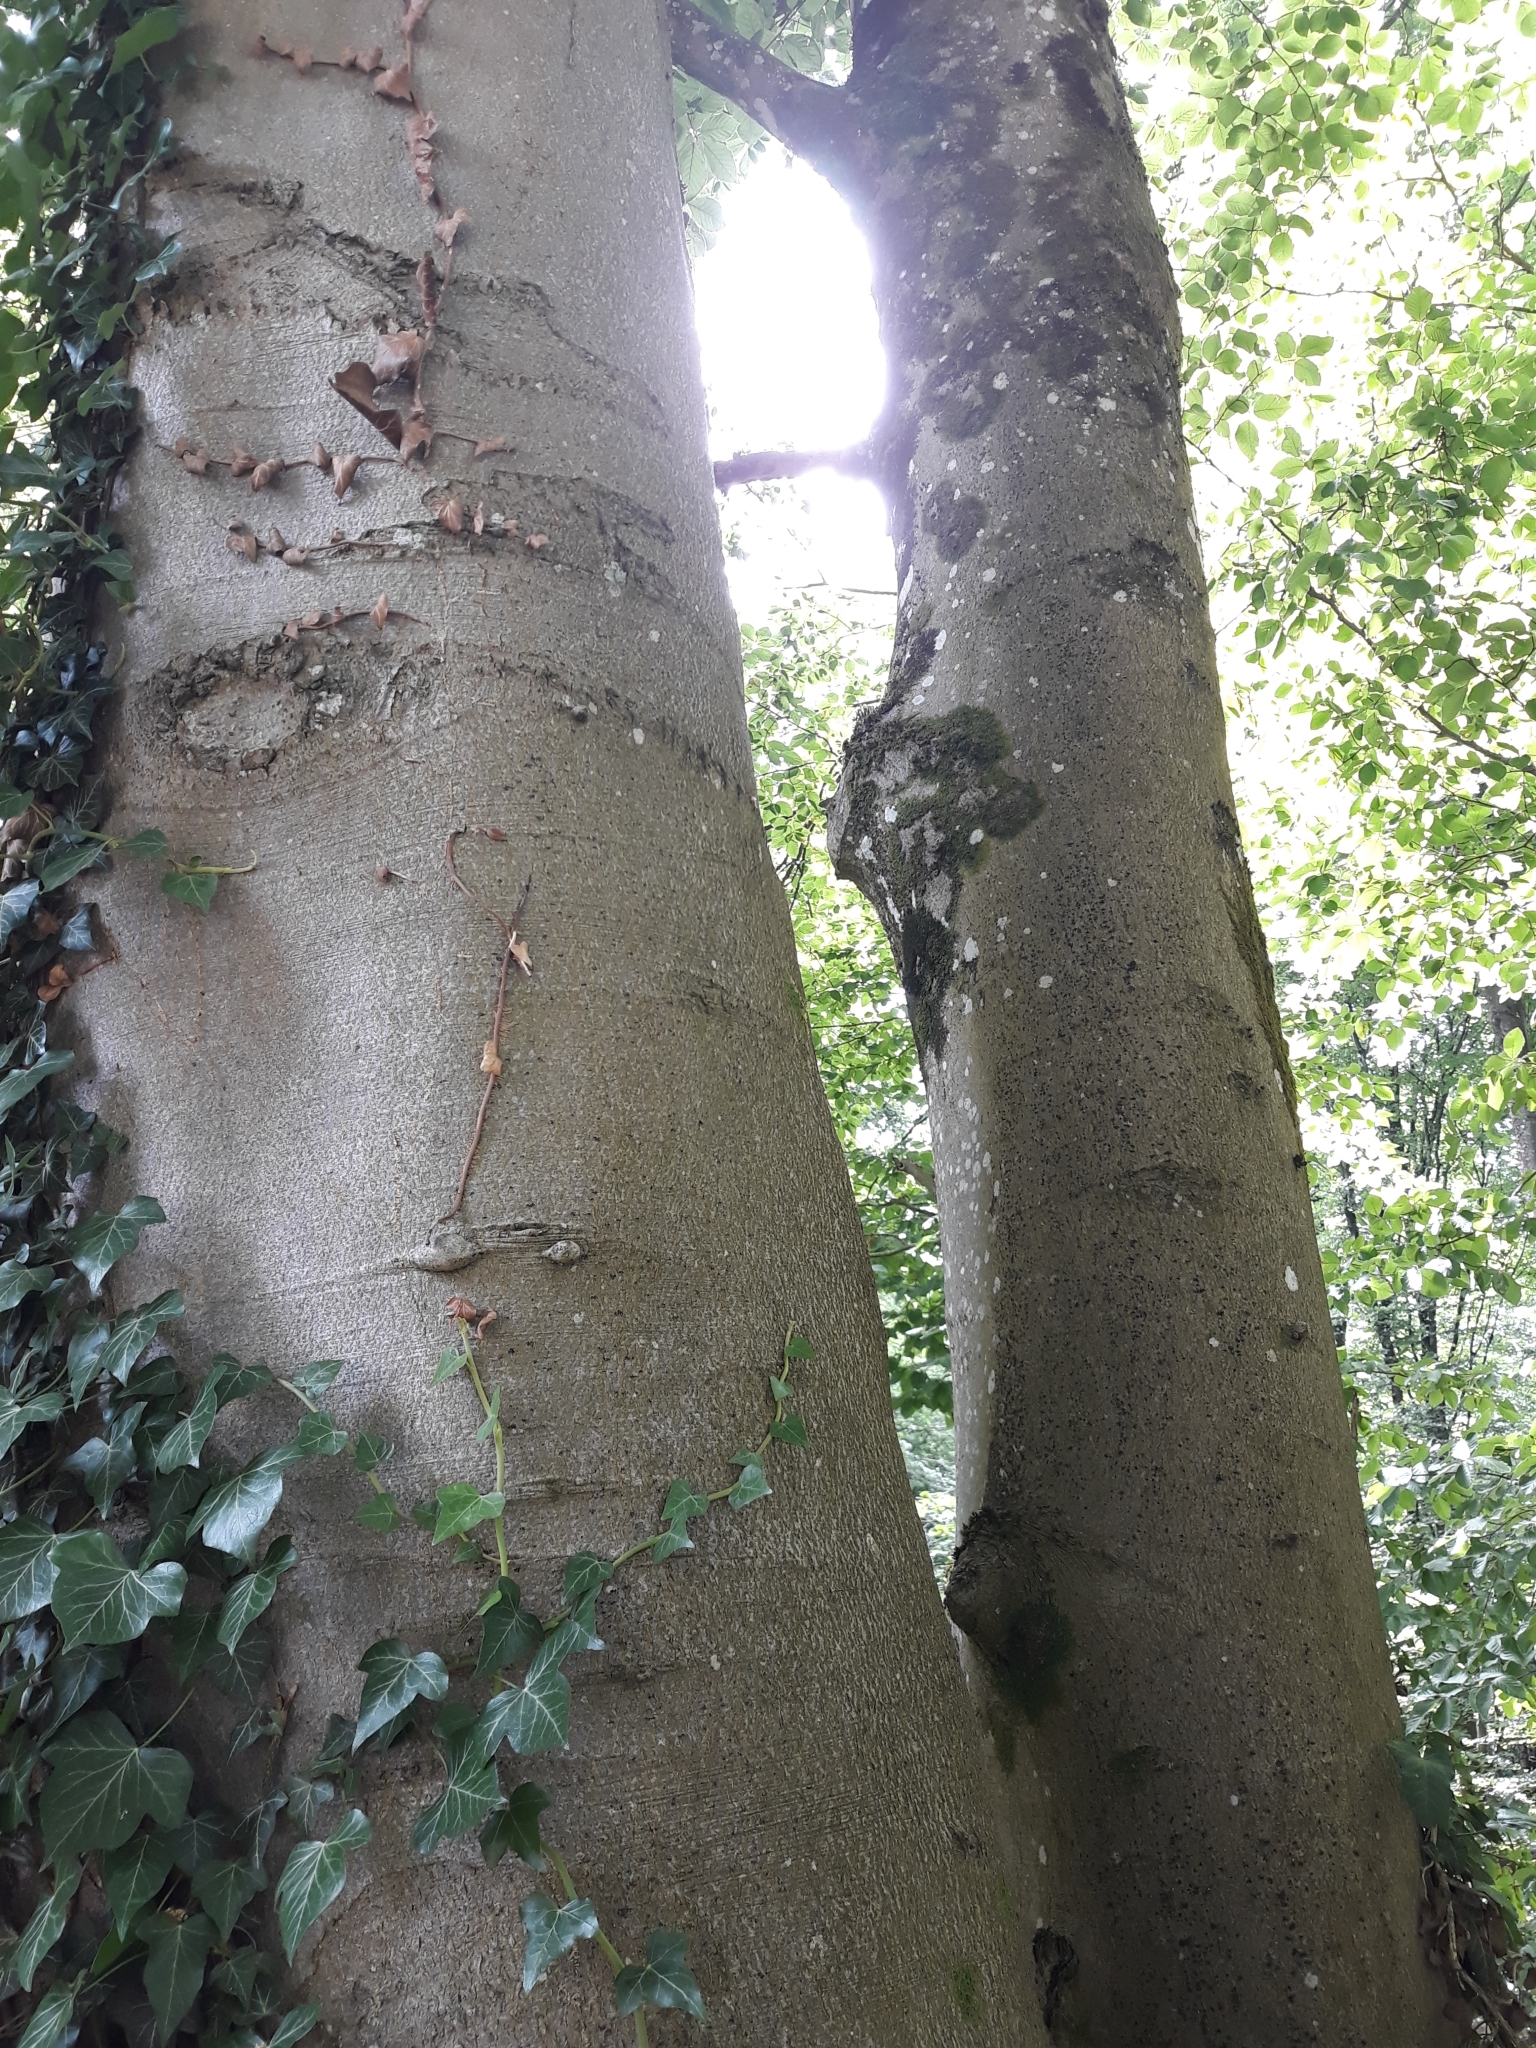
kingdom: Plantae
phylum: Tracheophyta
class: Magnoliopsida
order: Fagales
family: Fagaceae
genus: Fagus
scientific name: Fagus sylvatica
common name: Beech
